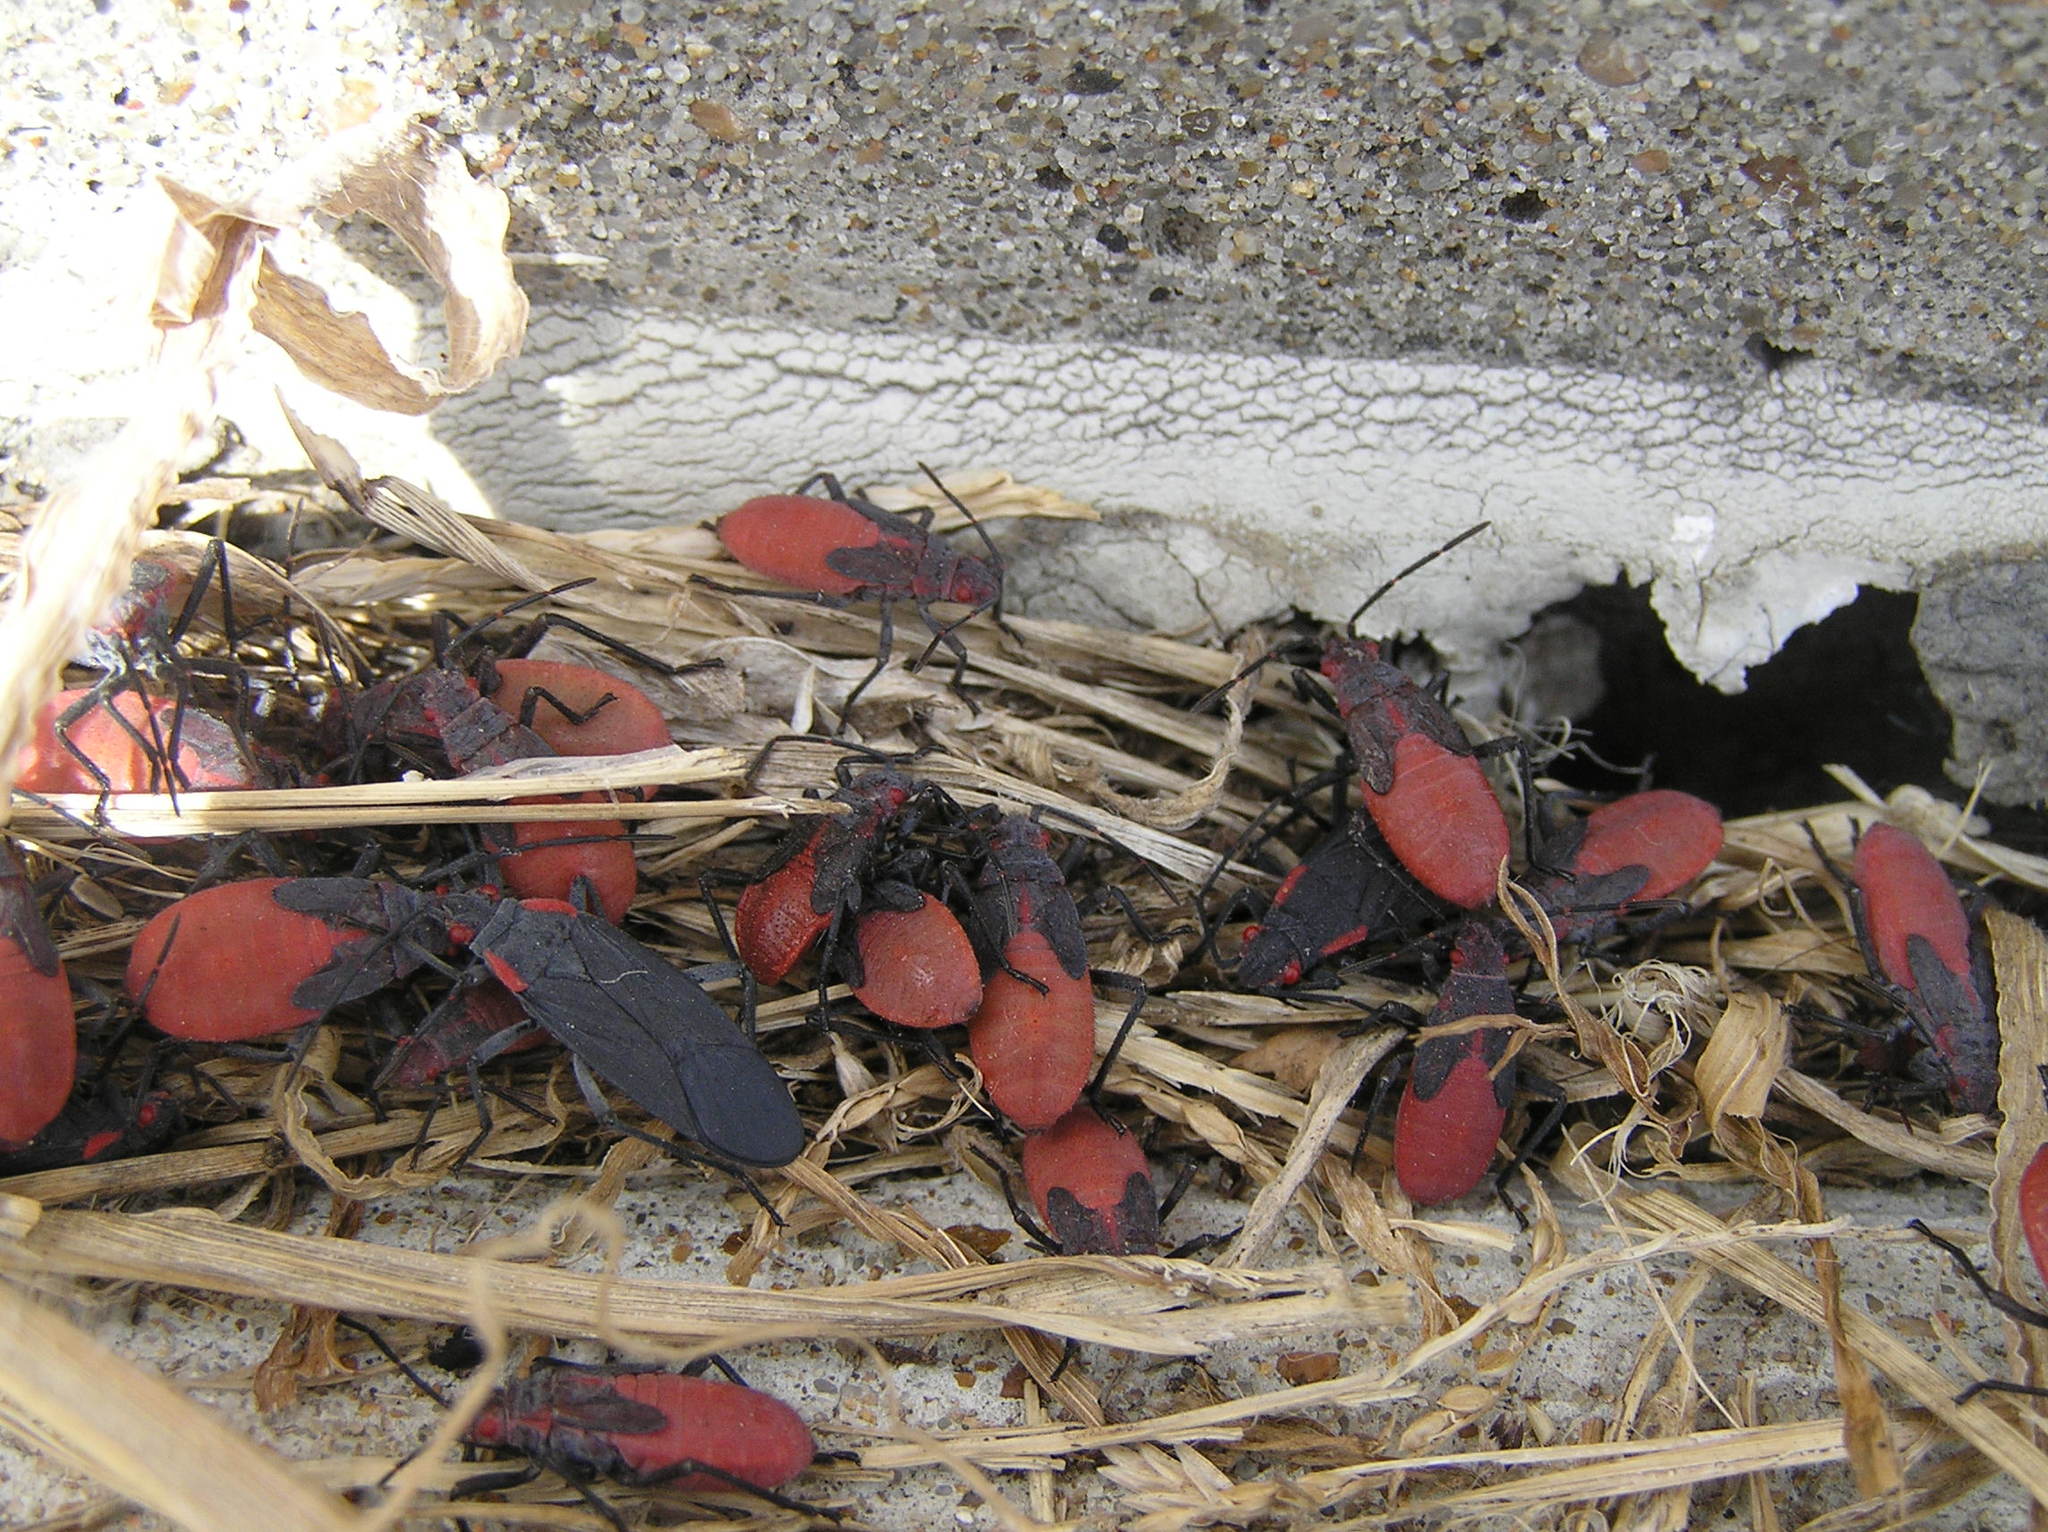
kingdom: Animalia
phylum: Arthropoda
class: Insecta
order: Hemiptera
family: Rhopalidae
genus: Jadera
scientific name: Jadera haematoloma
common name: Red-shouldered bug
